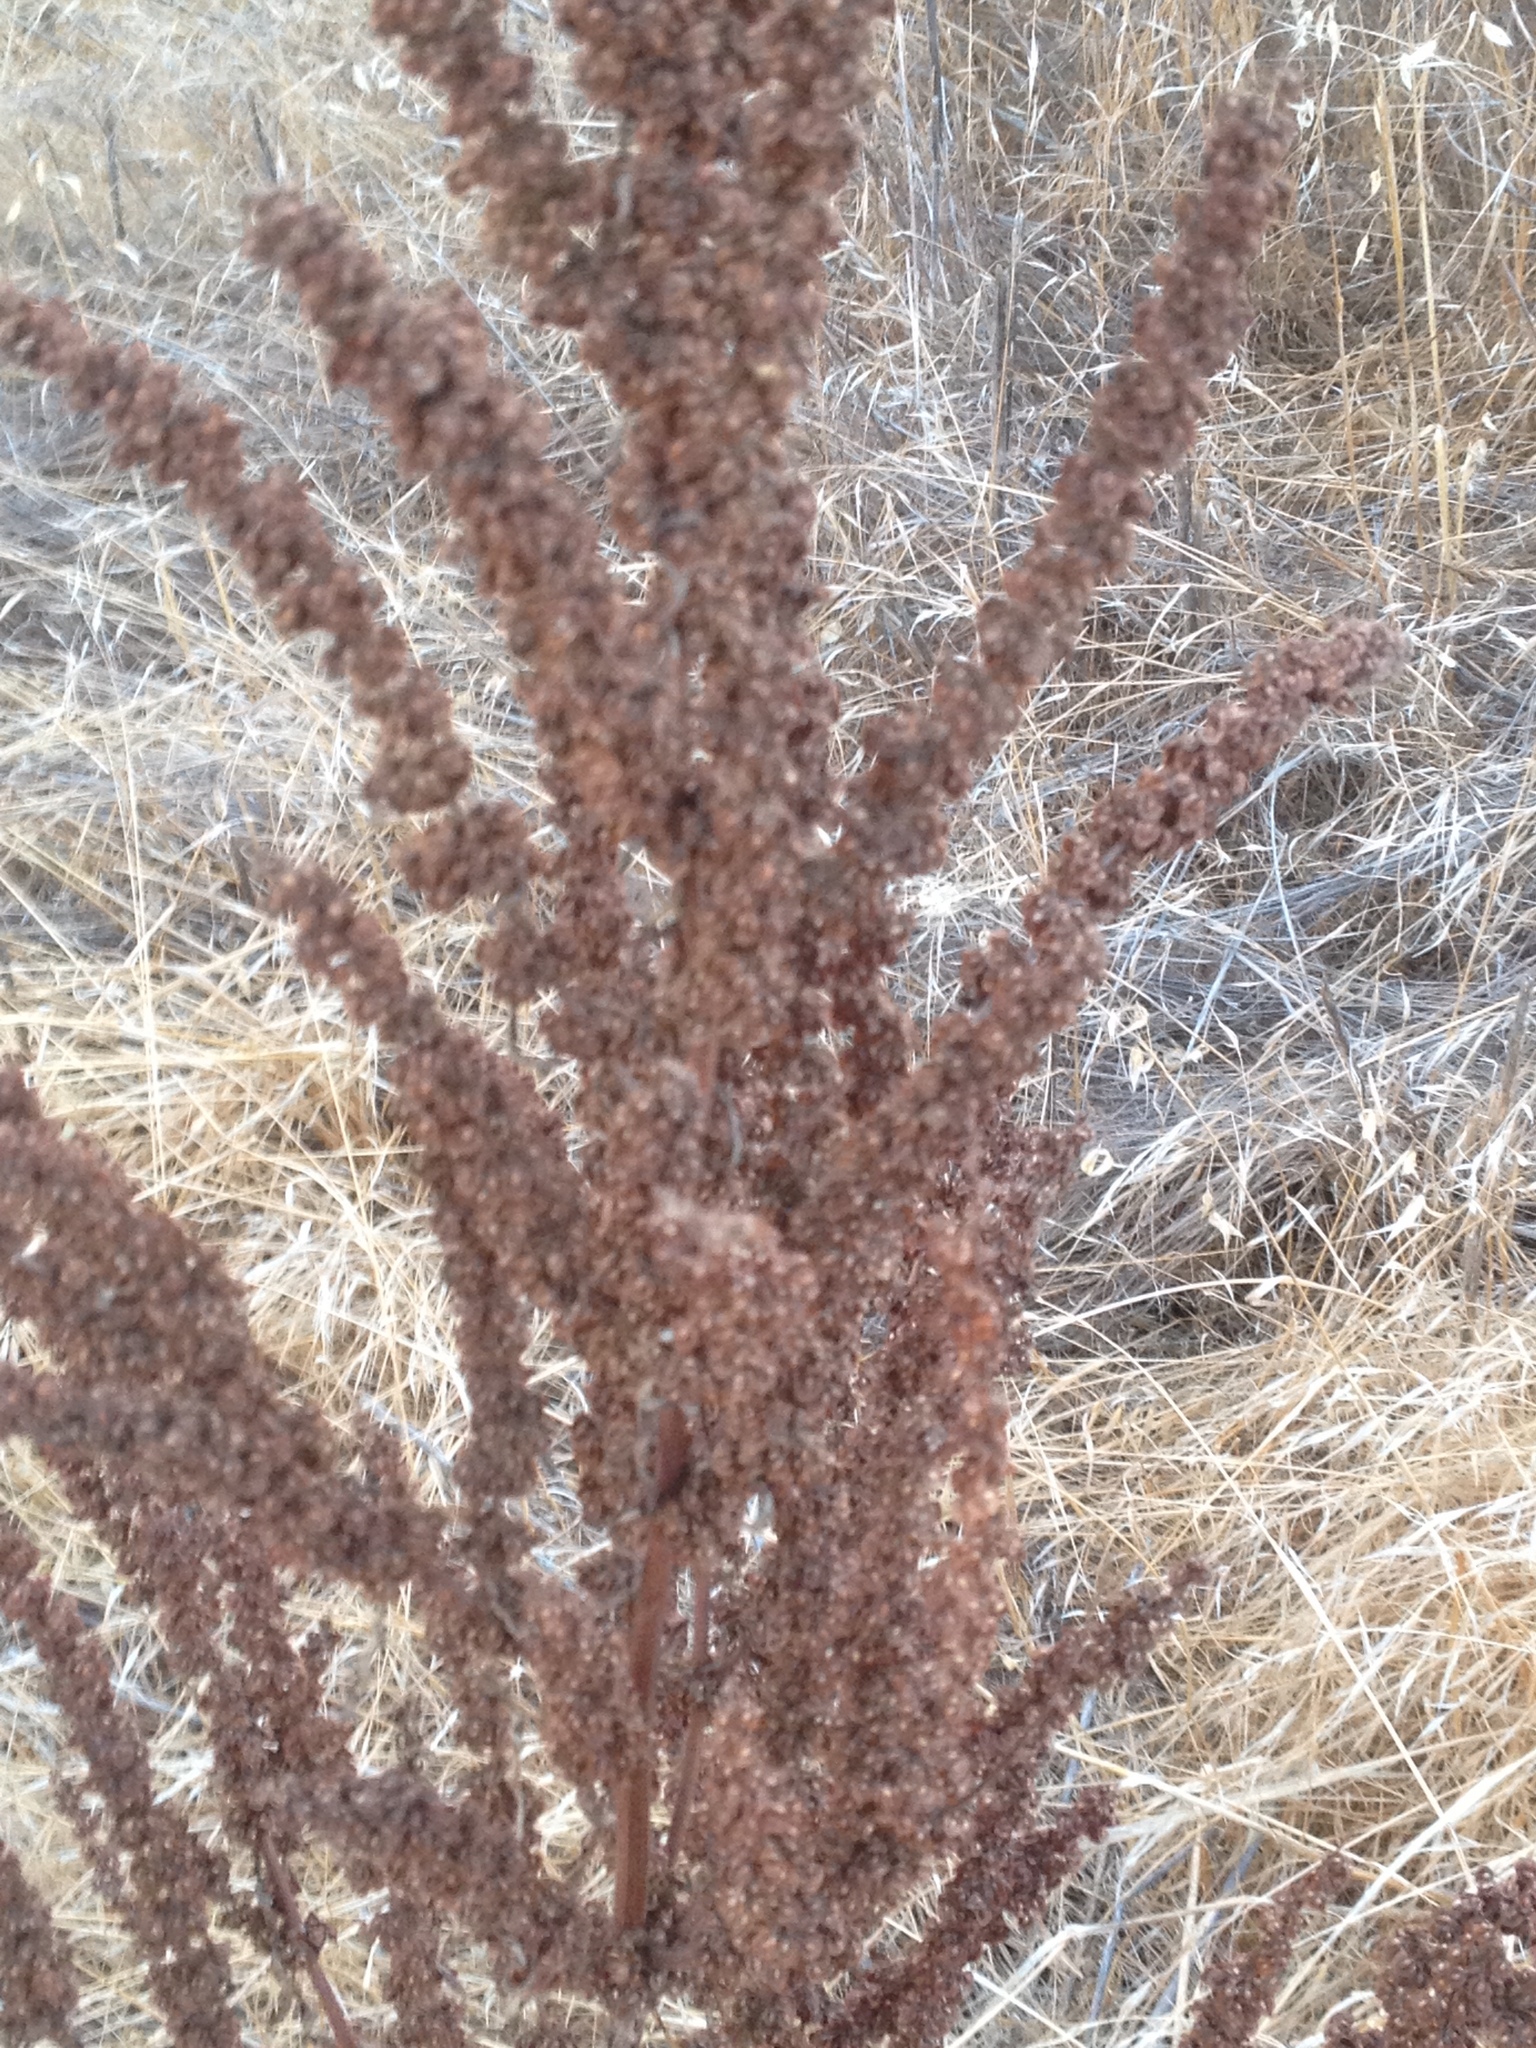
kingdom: Plantae
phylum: Tracheophyta
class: Magnoliopsida
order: Caryophyllales
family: Polygonaceae
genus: Rumex
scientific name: Rumex crispus
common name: Curled dock
